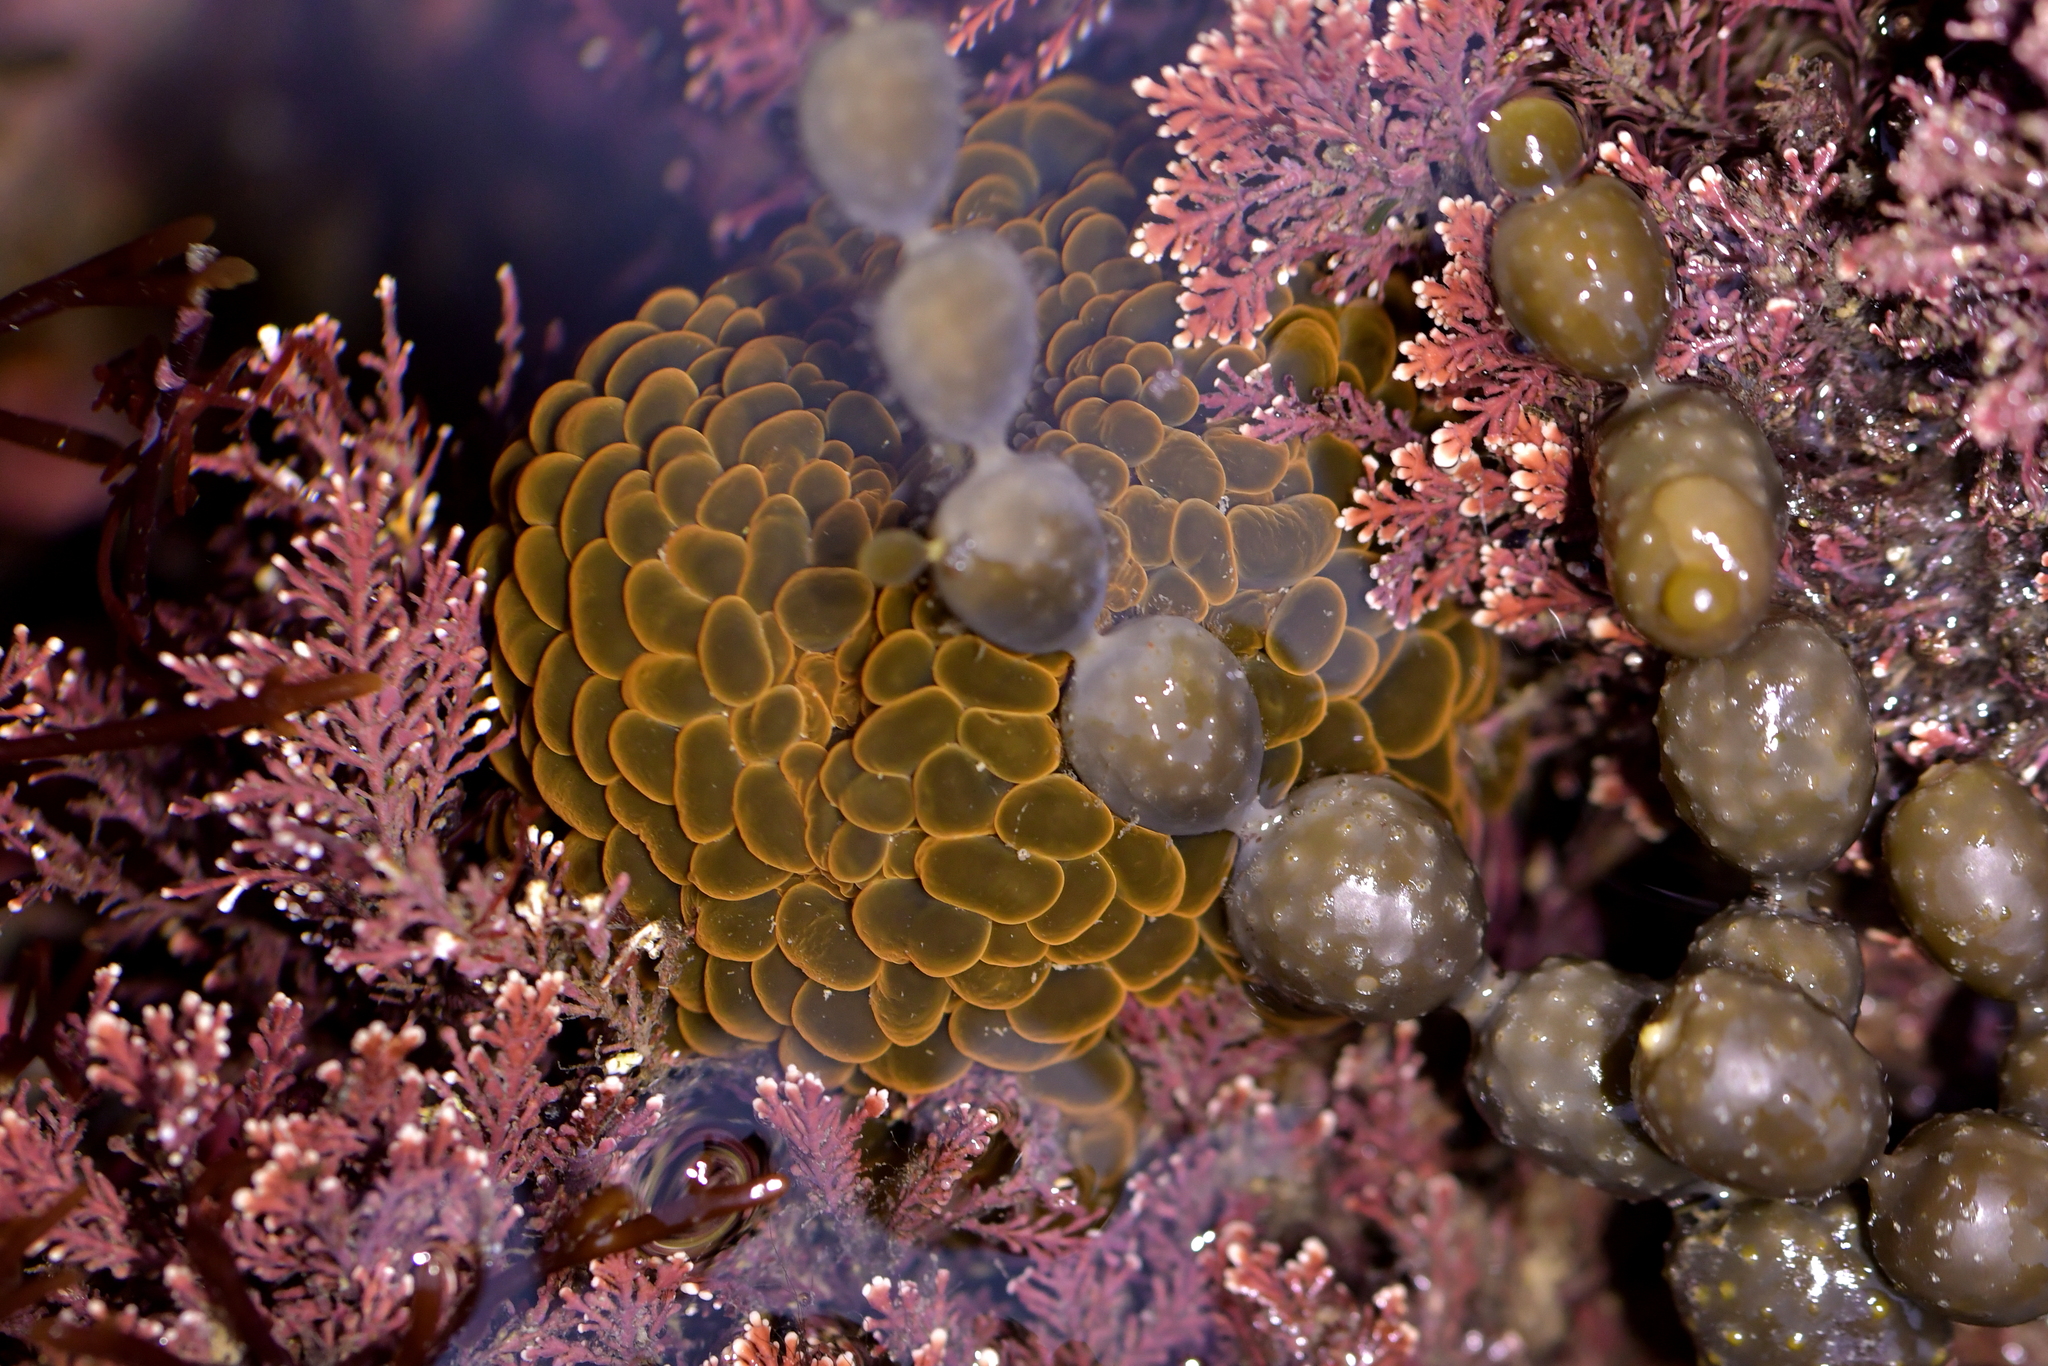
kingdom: Animalia
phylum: Cnidaria
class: Anthozoa
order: Actiniaria
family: Actiniidae
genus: Phlyctenactis
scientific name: Phlyctenactis tuberculosa
